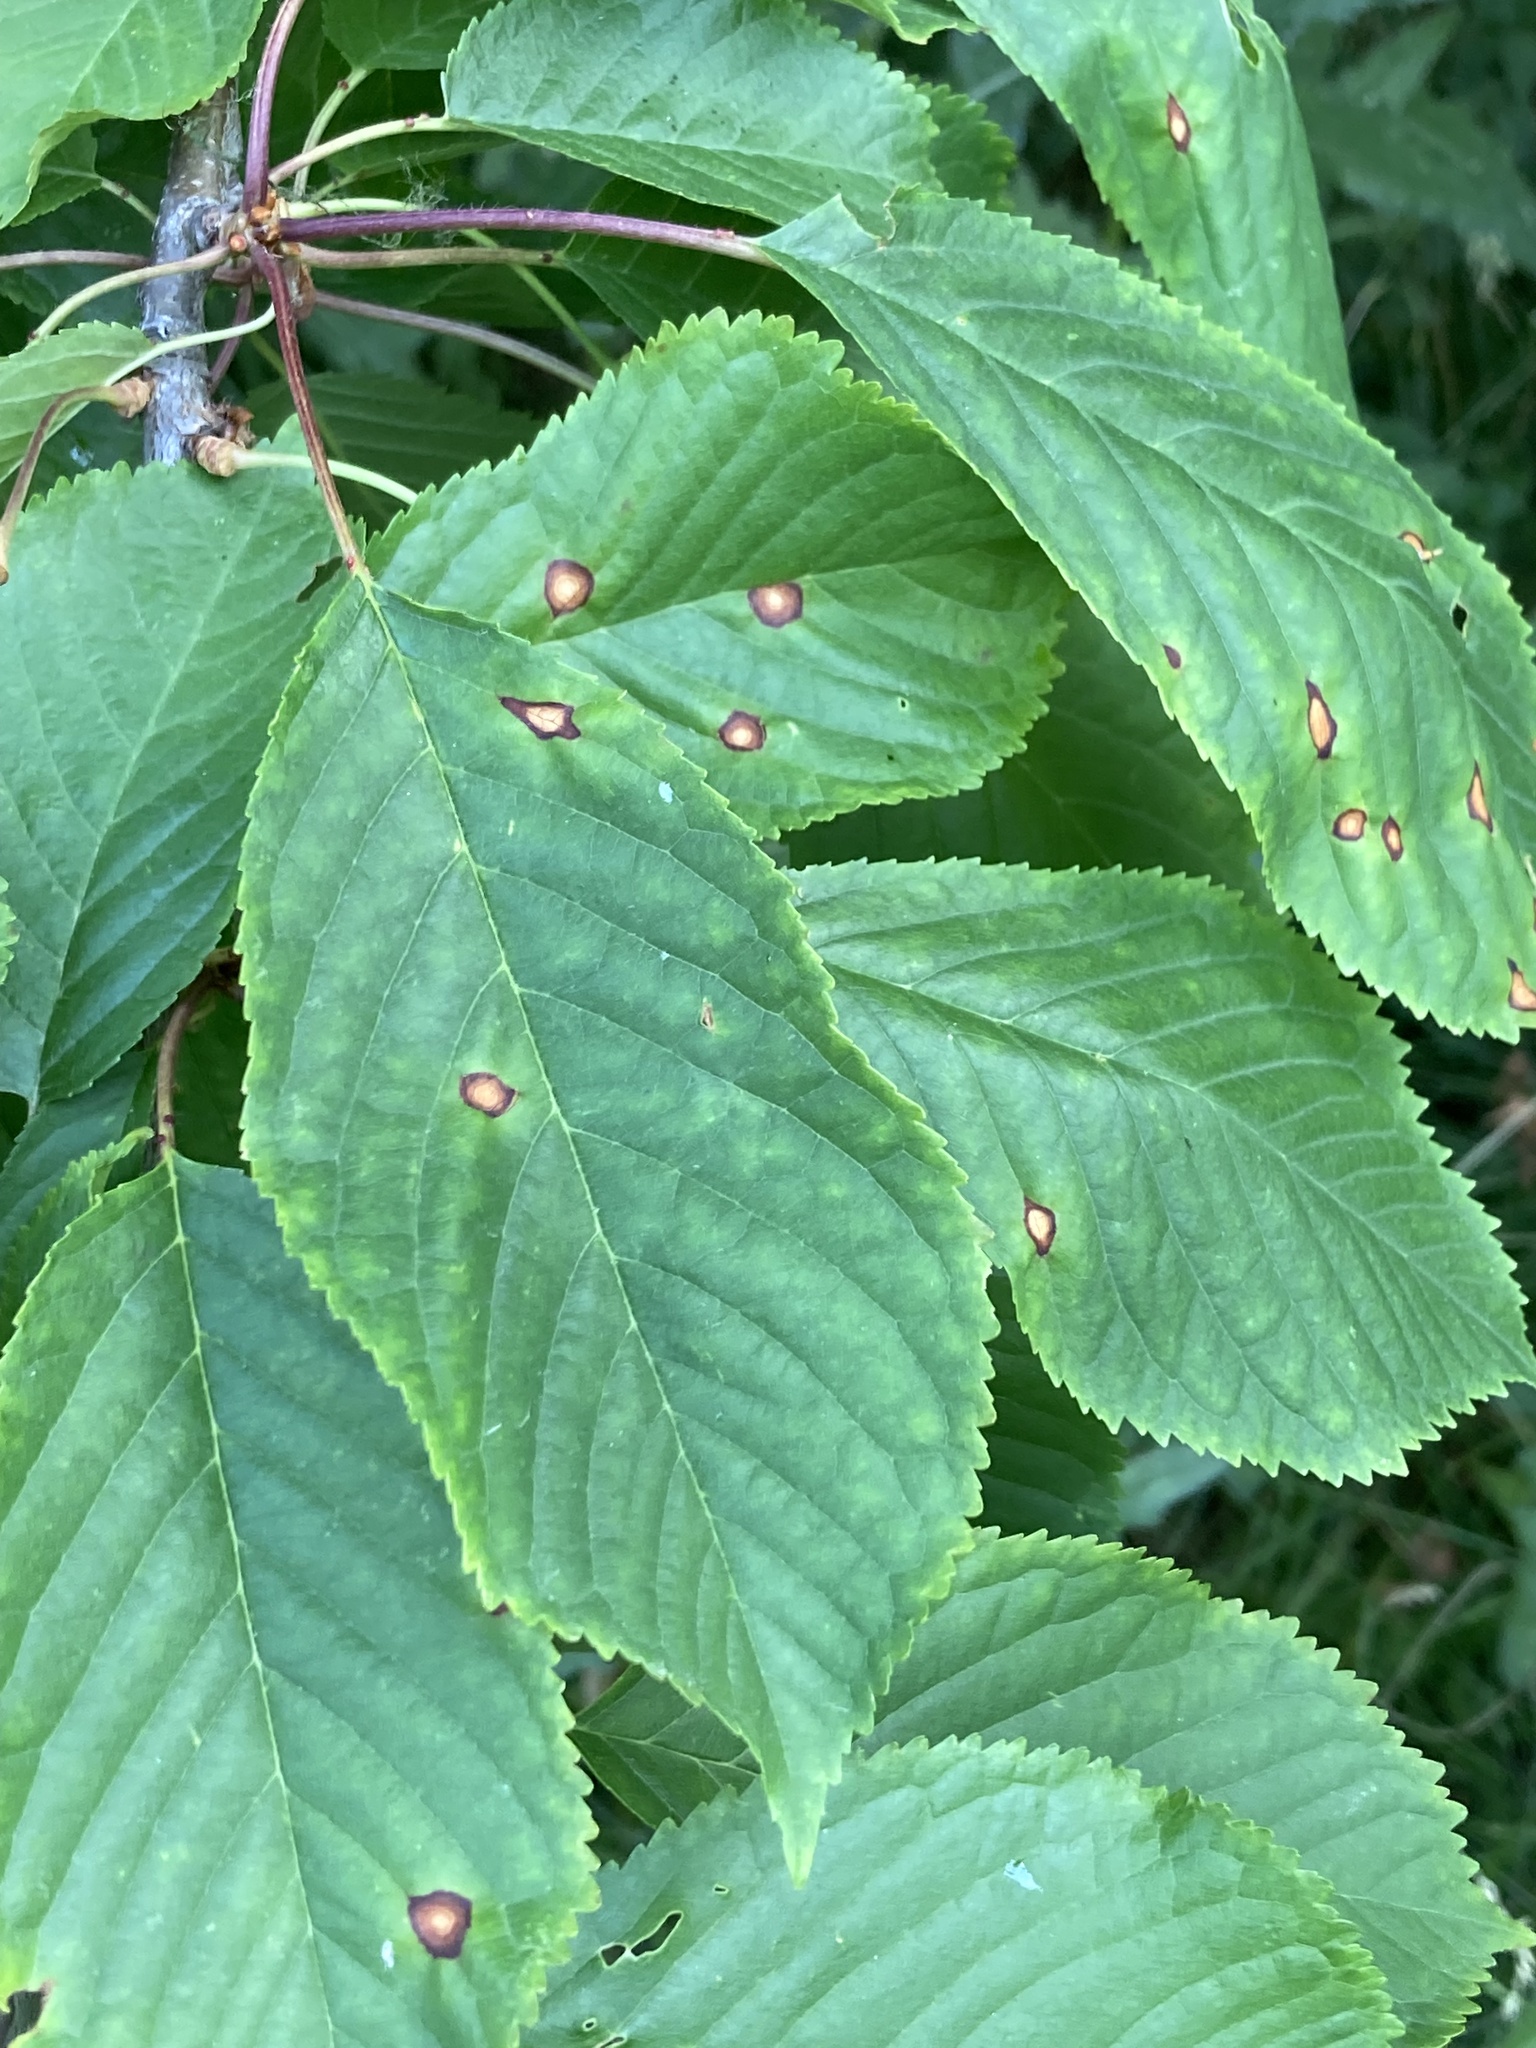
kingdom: Plantae
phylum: Tracheophyta
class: Magnoliopsida
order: Rosales
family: Rosaceae
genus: Prunus
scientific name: Prunus avium
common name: Sweet cherry
